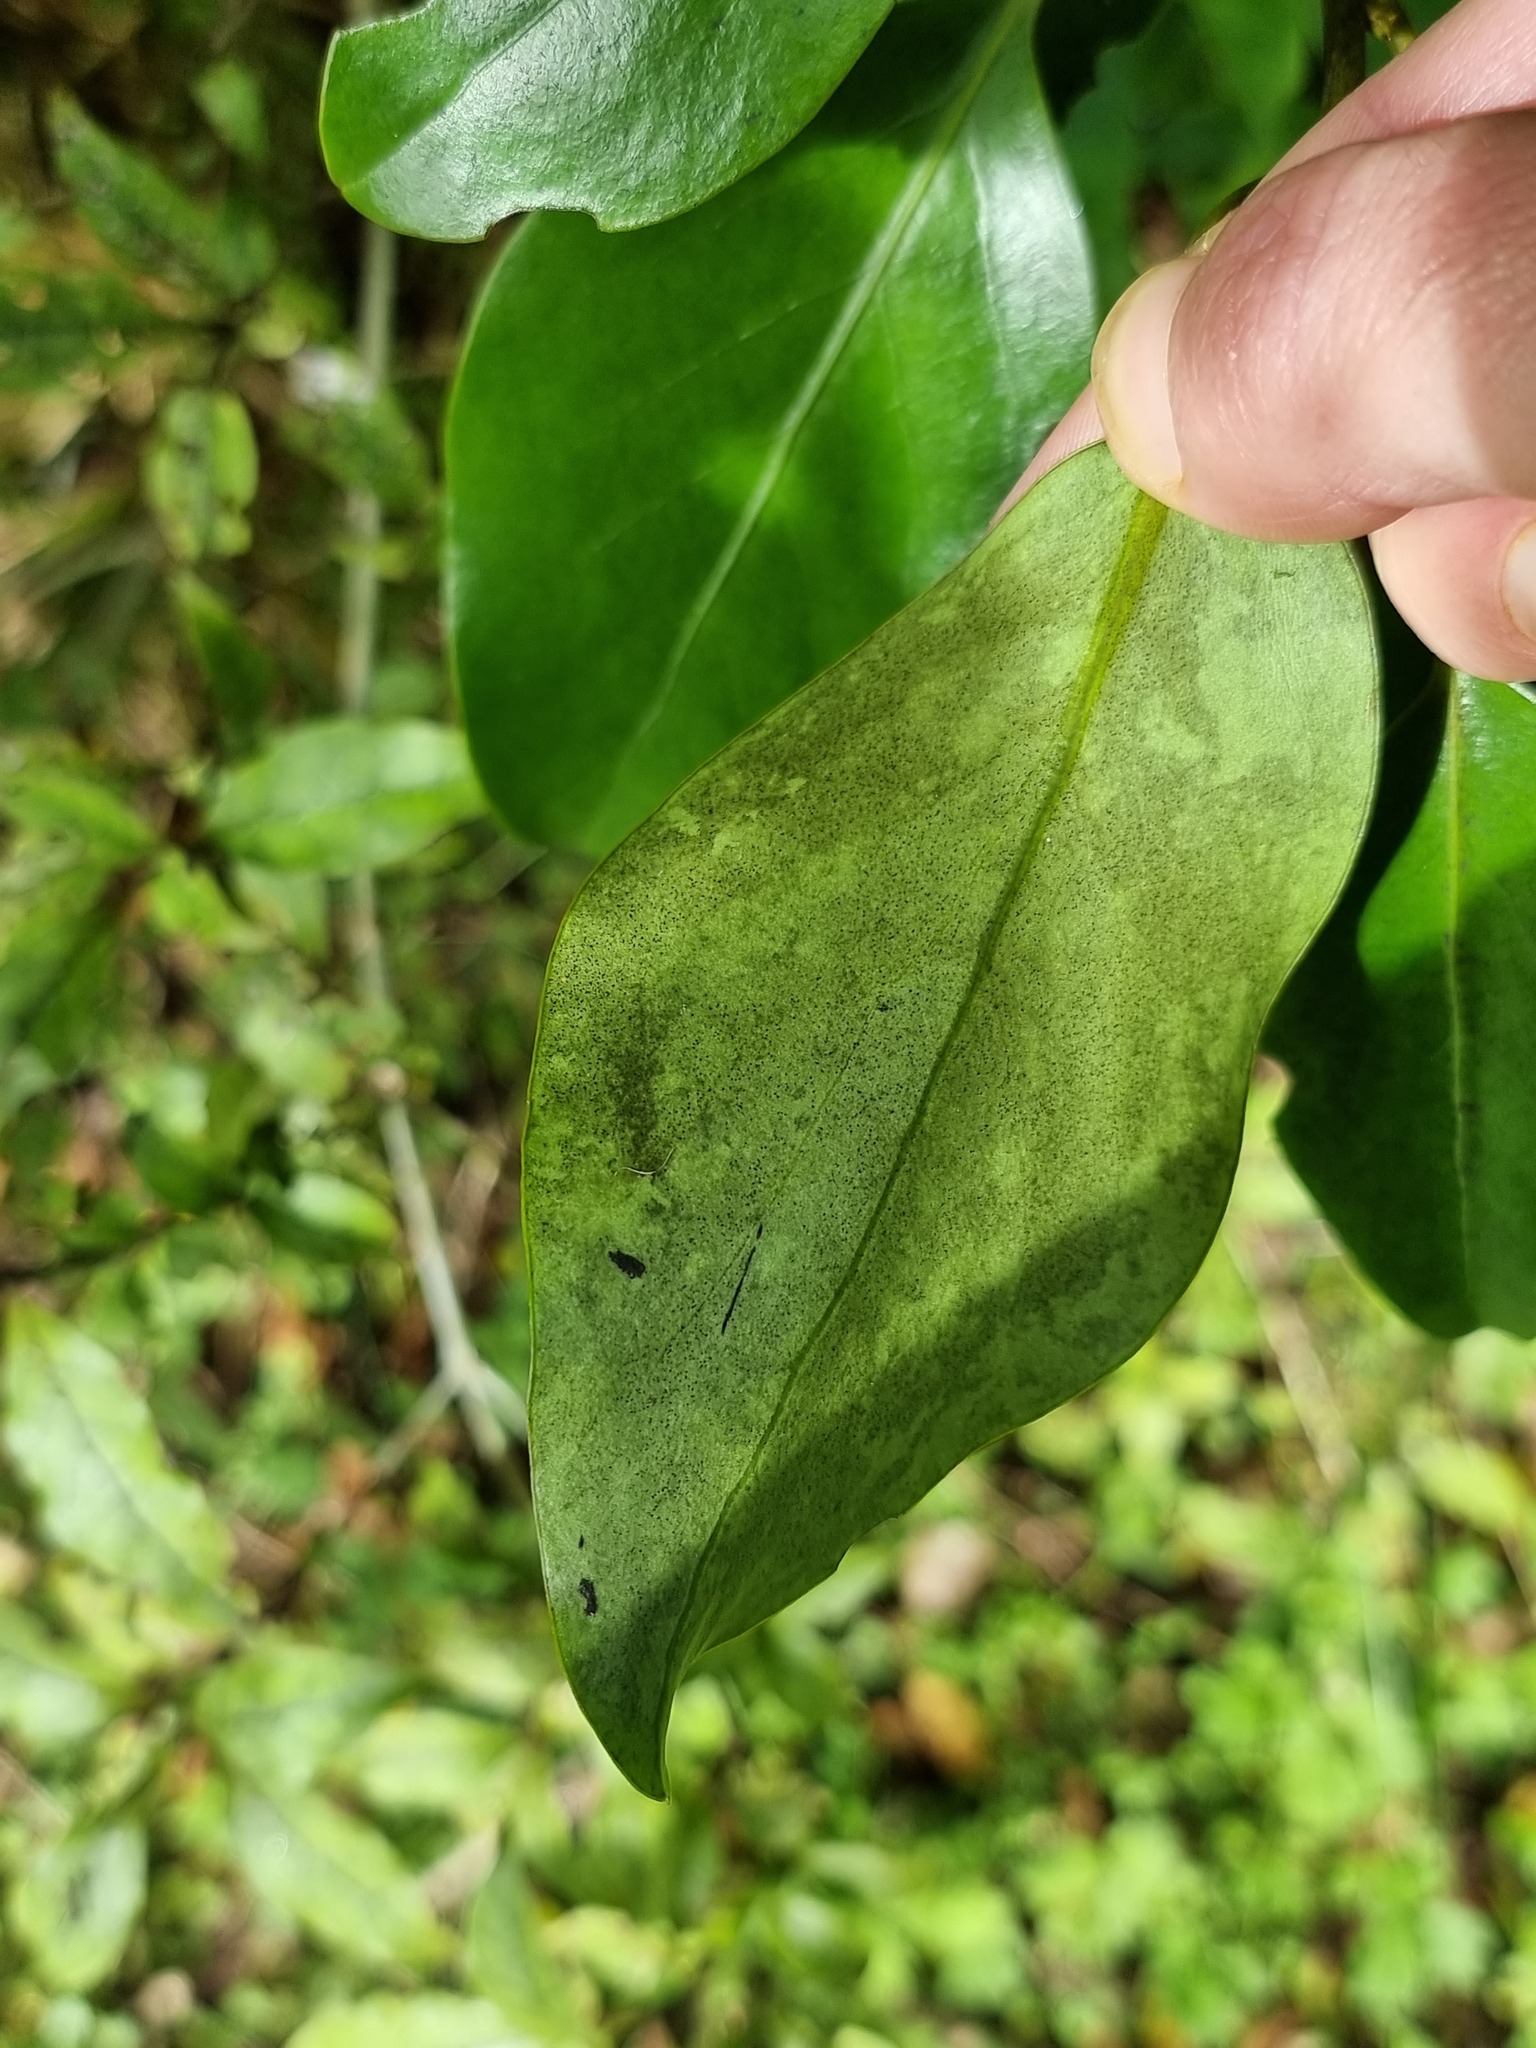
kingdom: Plantae
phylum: Tracheophyta
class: Magnoliopsida
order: Apiales
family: Griseliniaceae
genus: Griselinia
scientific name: Griselinia littoralis
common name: New zealand broadleaf
